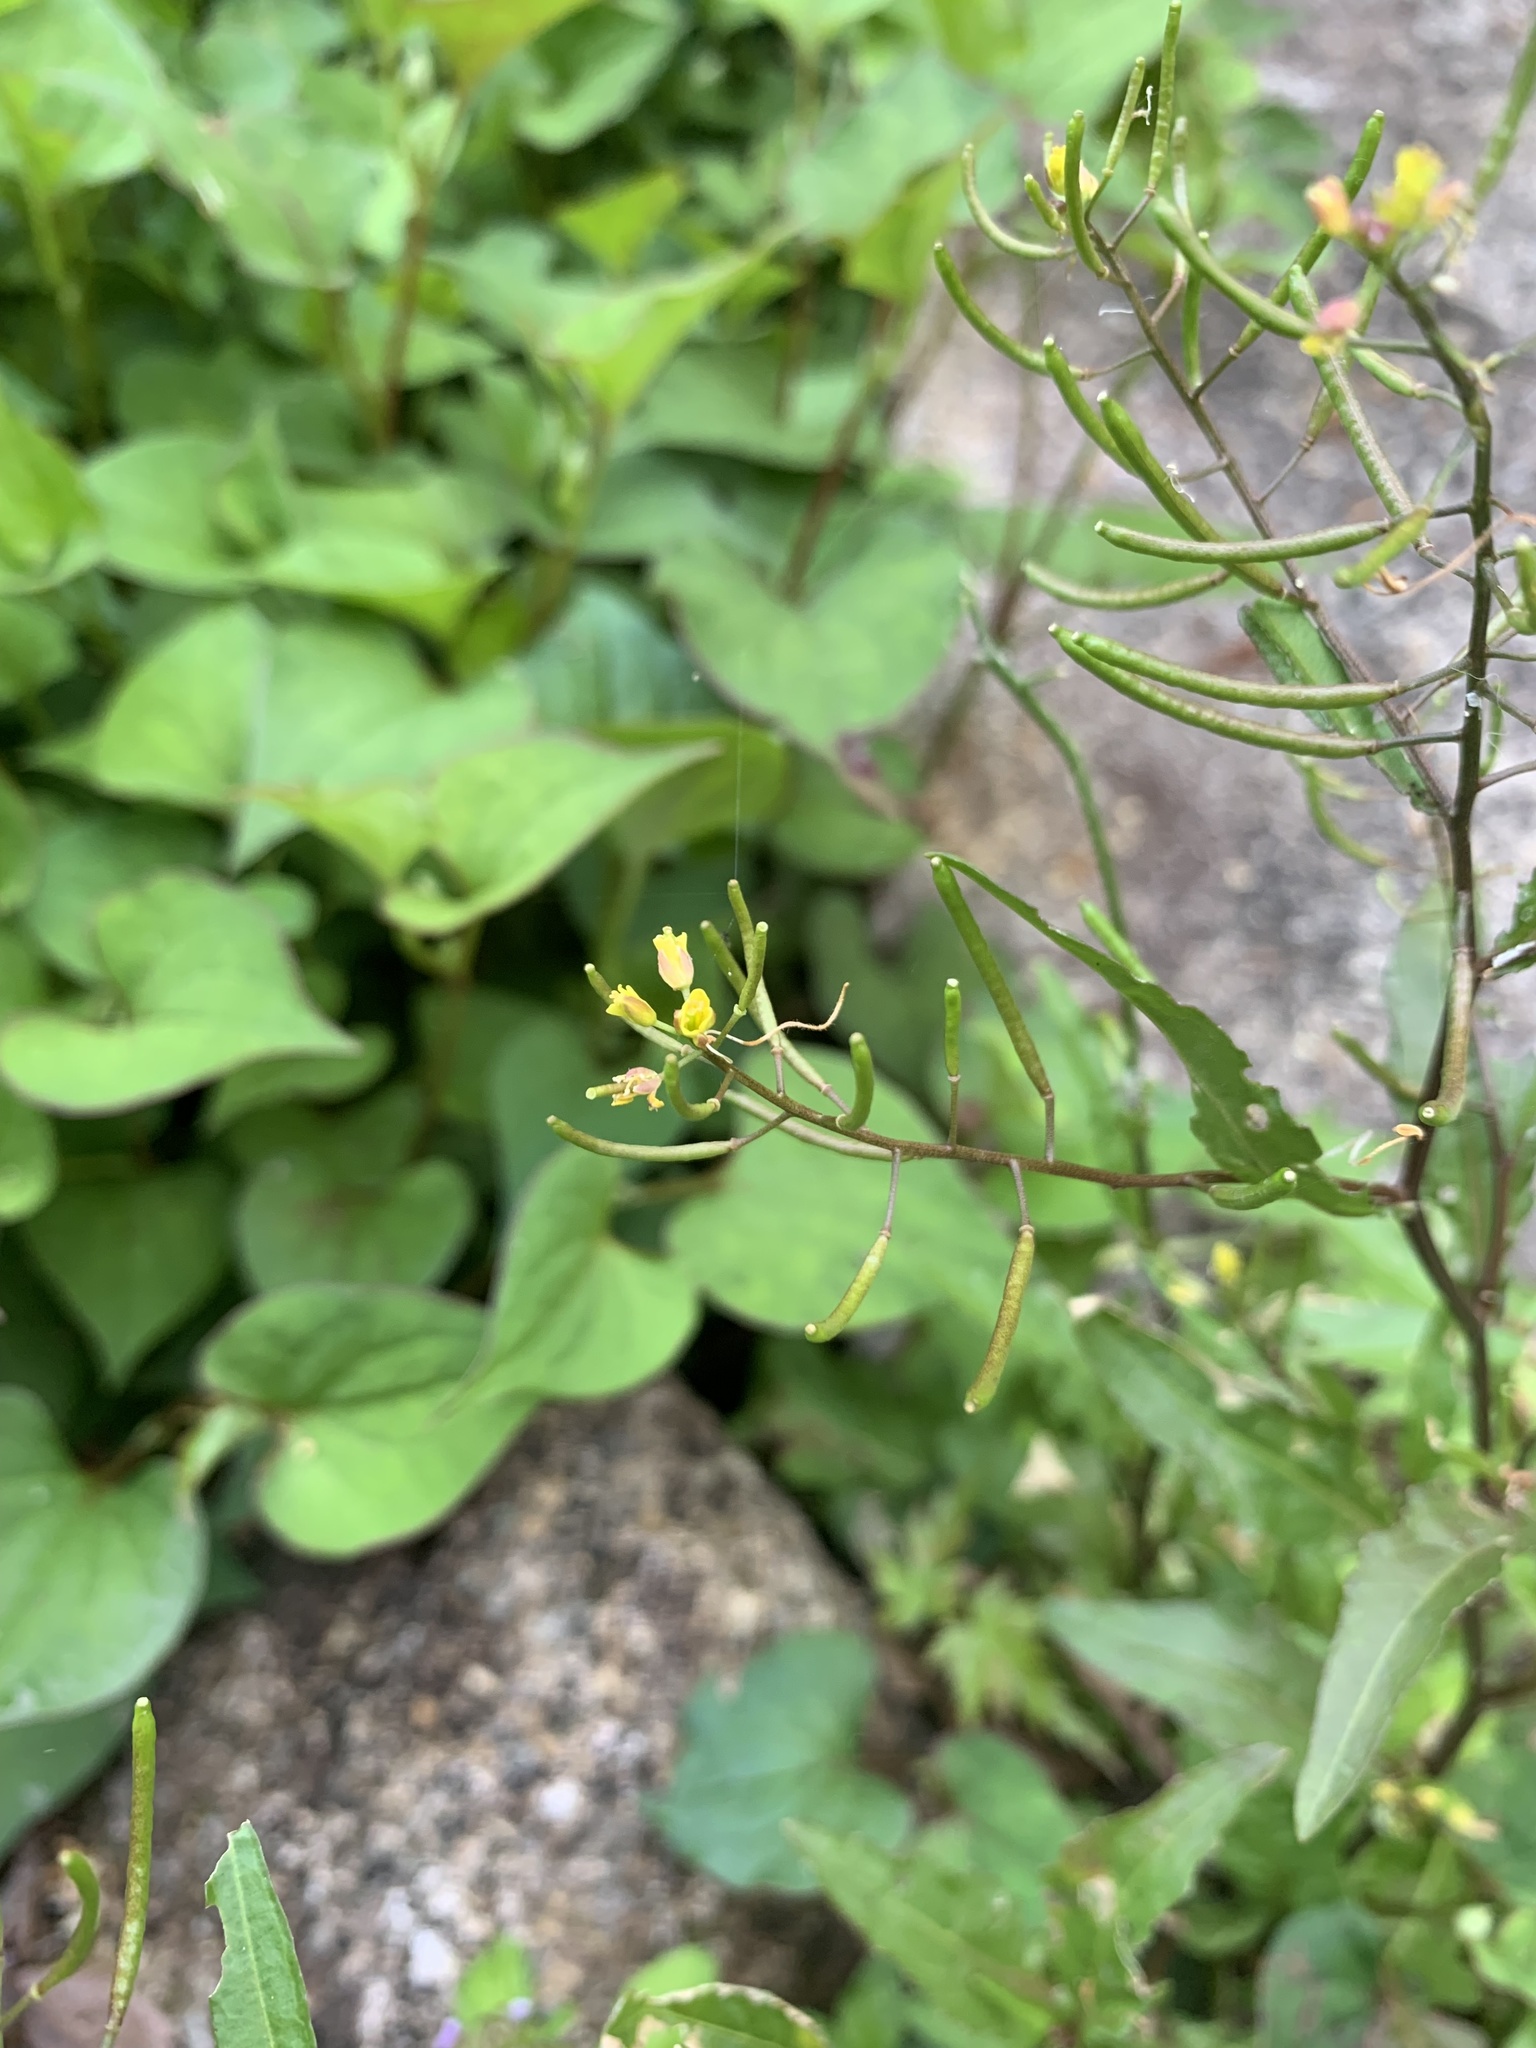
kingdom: Plantae
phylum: Tracheophyta
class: Magnoliopsida
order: Brassicales
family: Brassicaceae
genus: Rorippa
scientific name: Rorippa indica
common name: Variableleaf yellowcress
